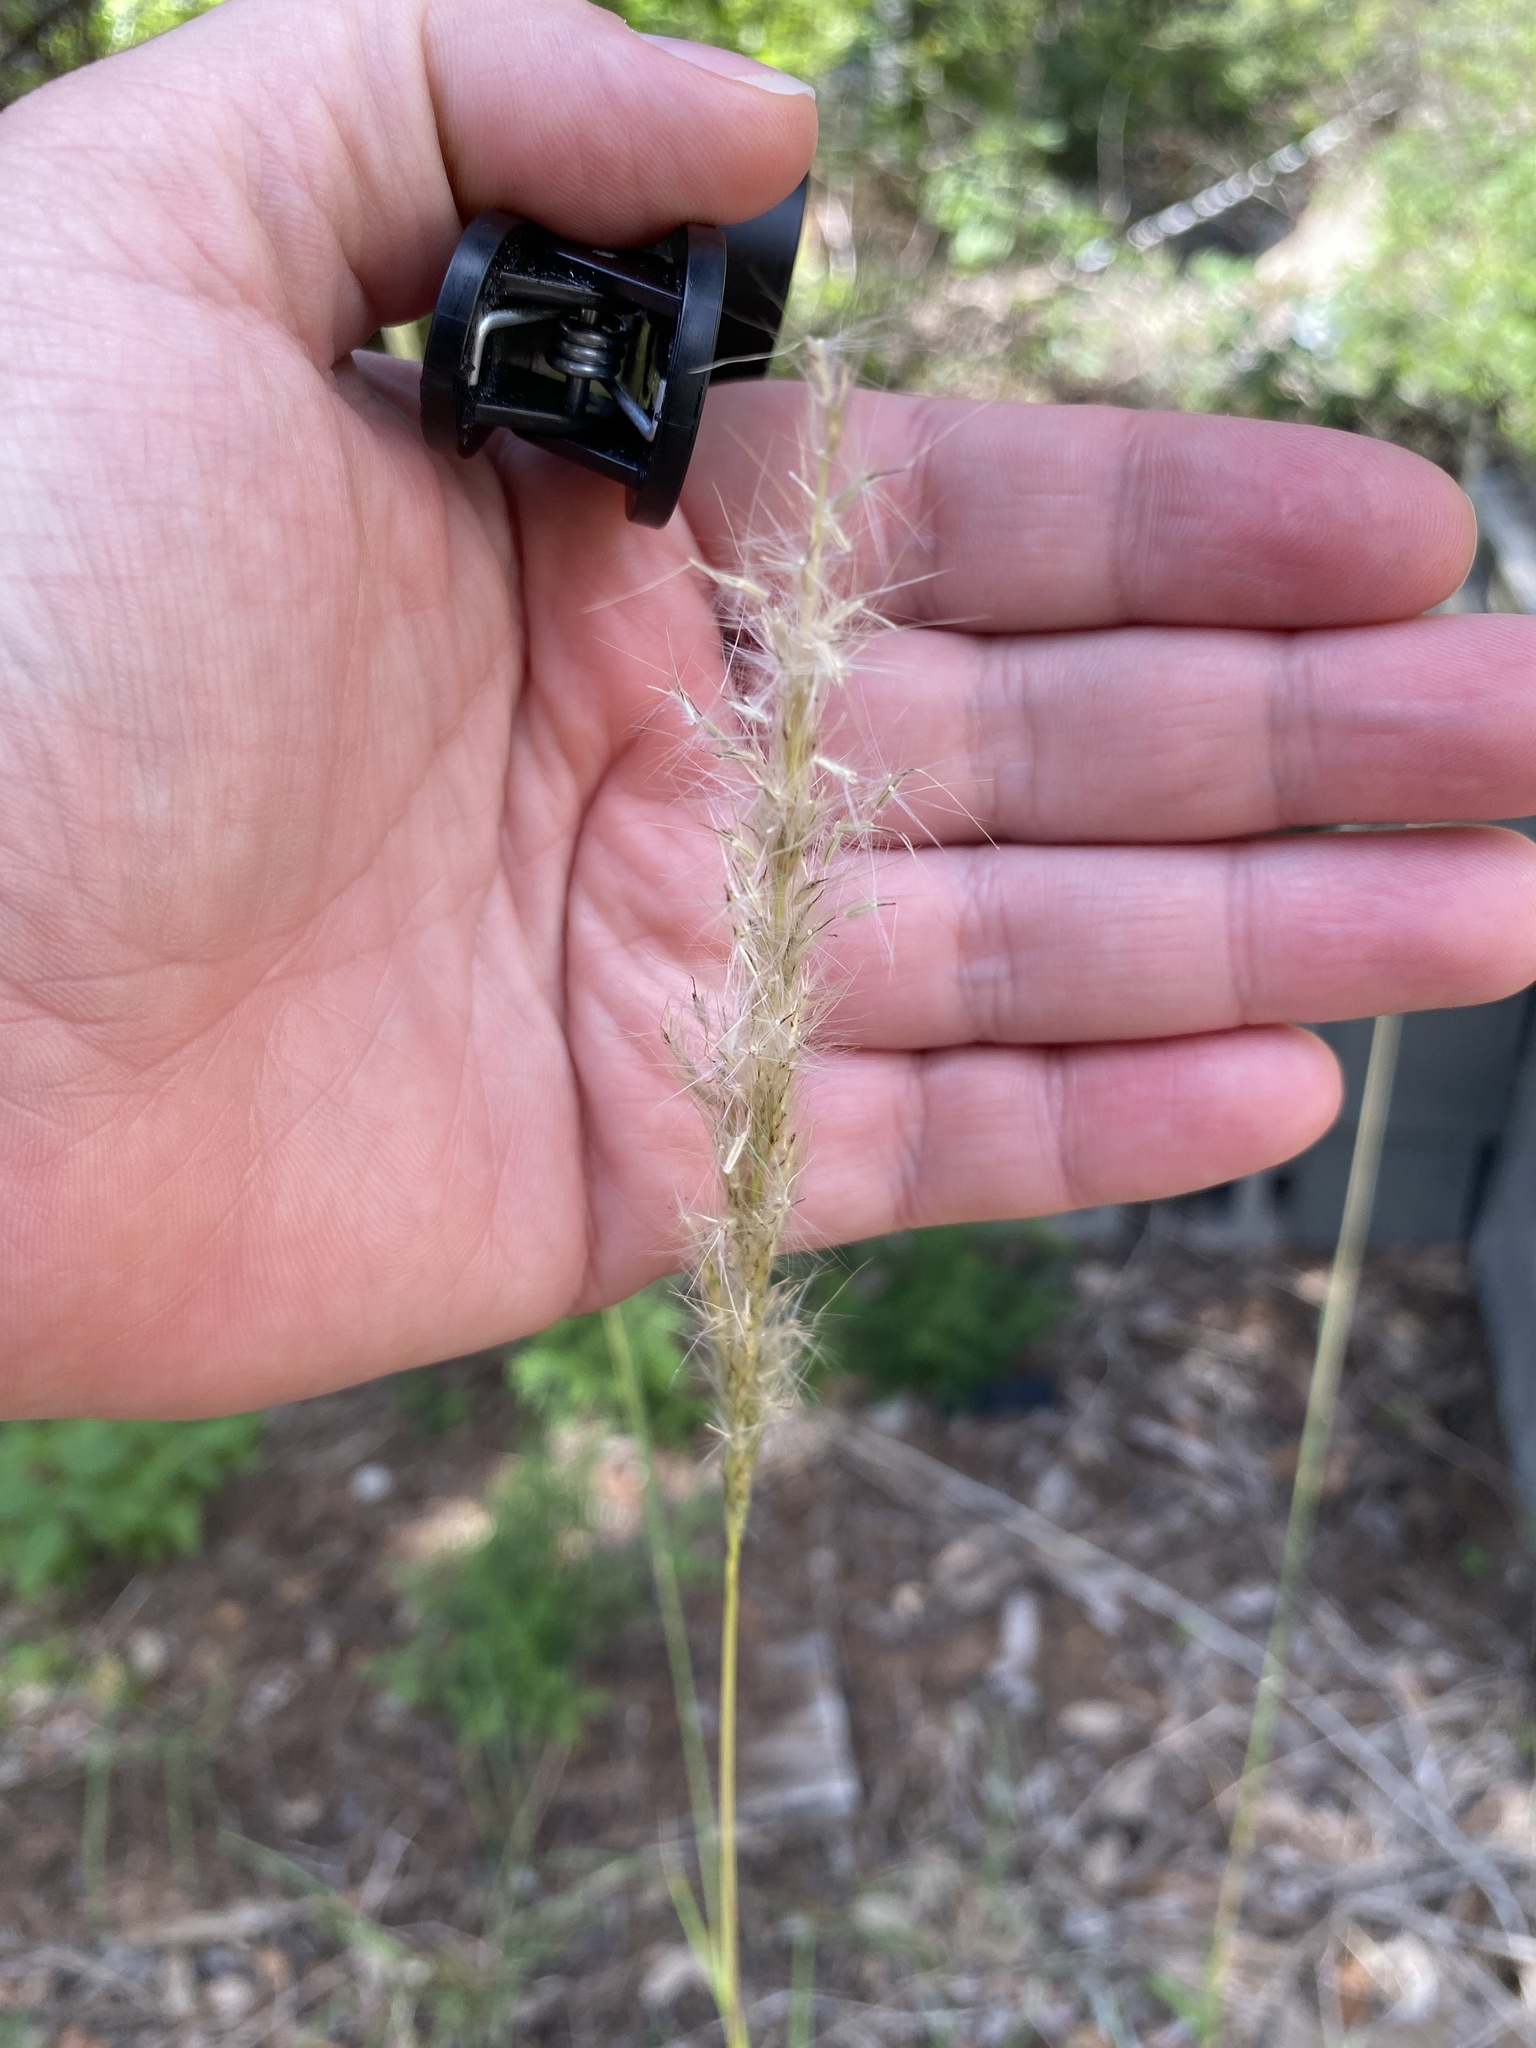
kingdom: Plantae
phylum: Tracheophyta
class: Liliopsida
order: Poales
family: Poaceae
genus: Bothriochloa
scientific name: Bothriochloa torreyana
